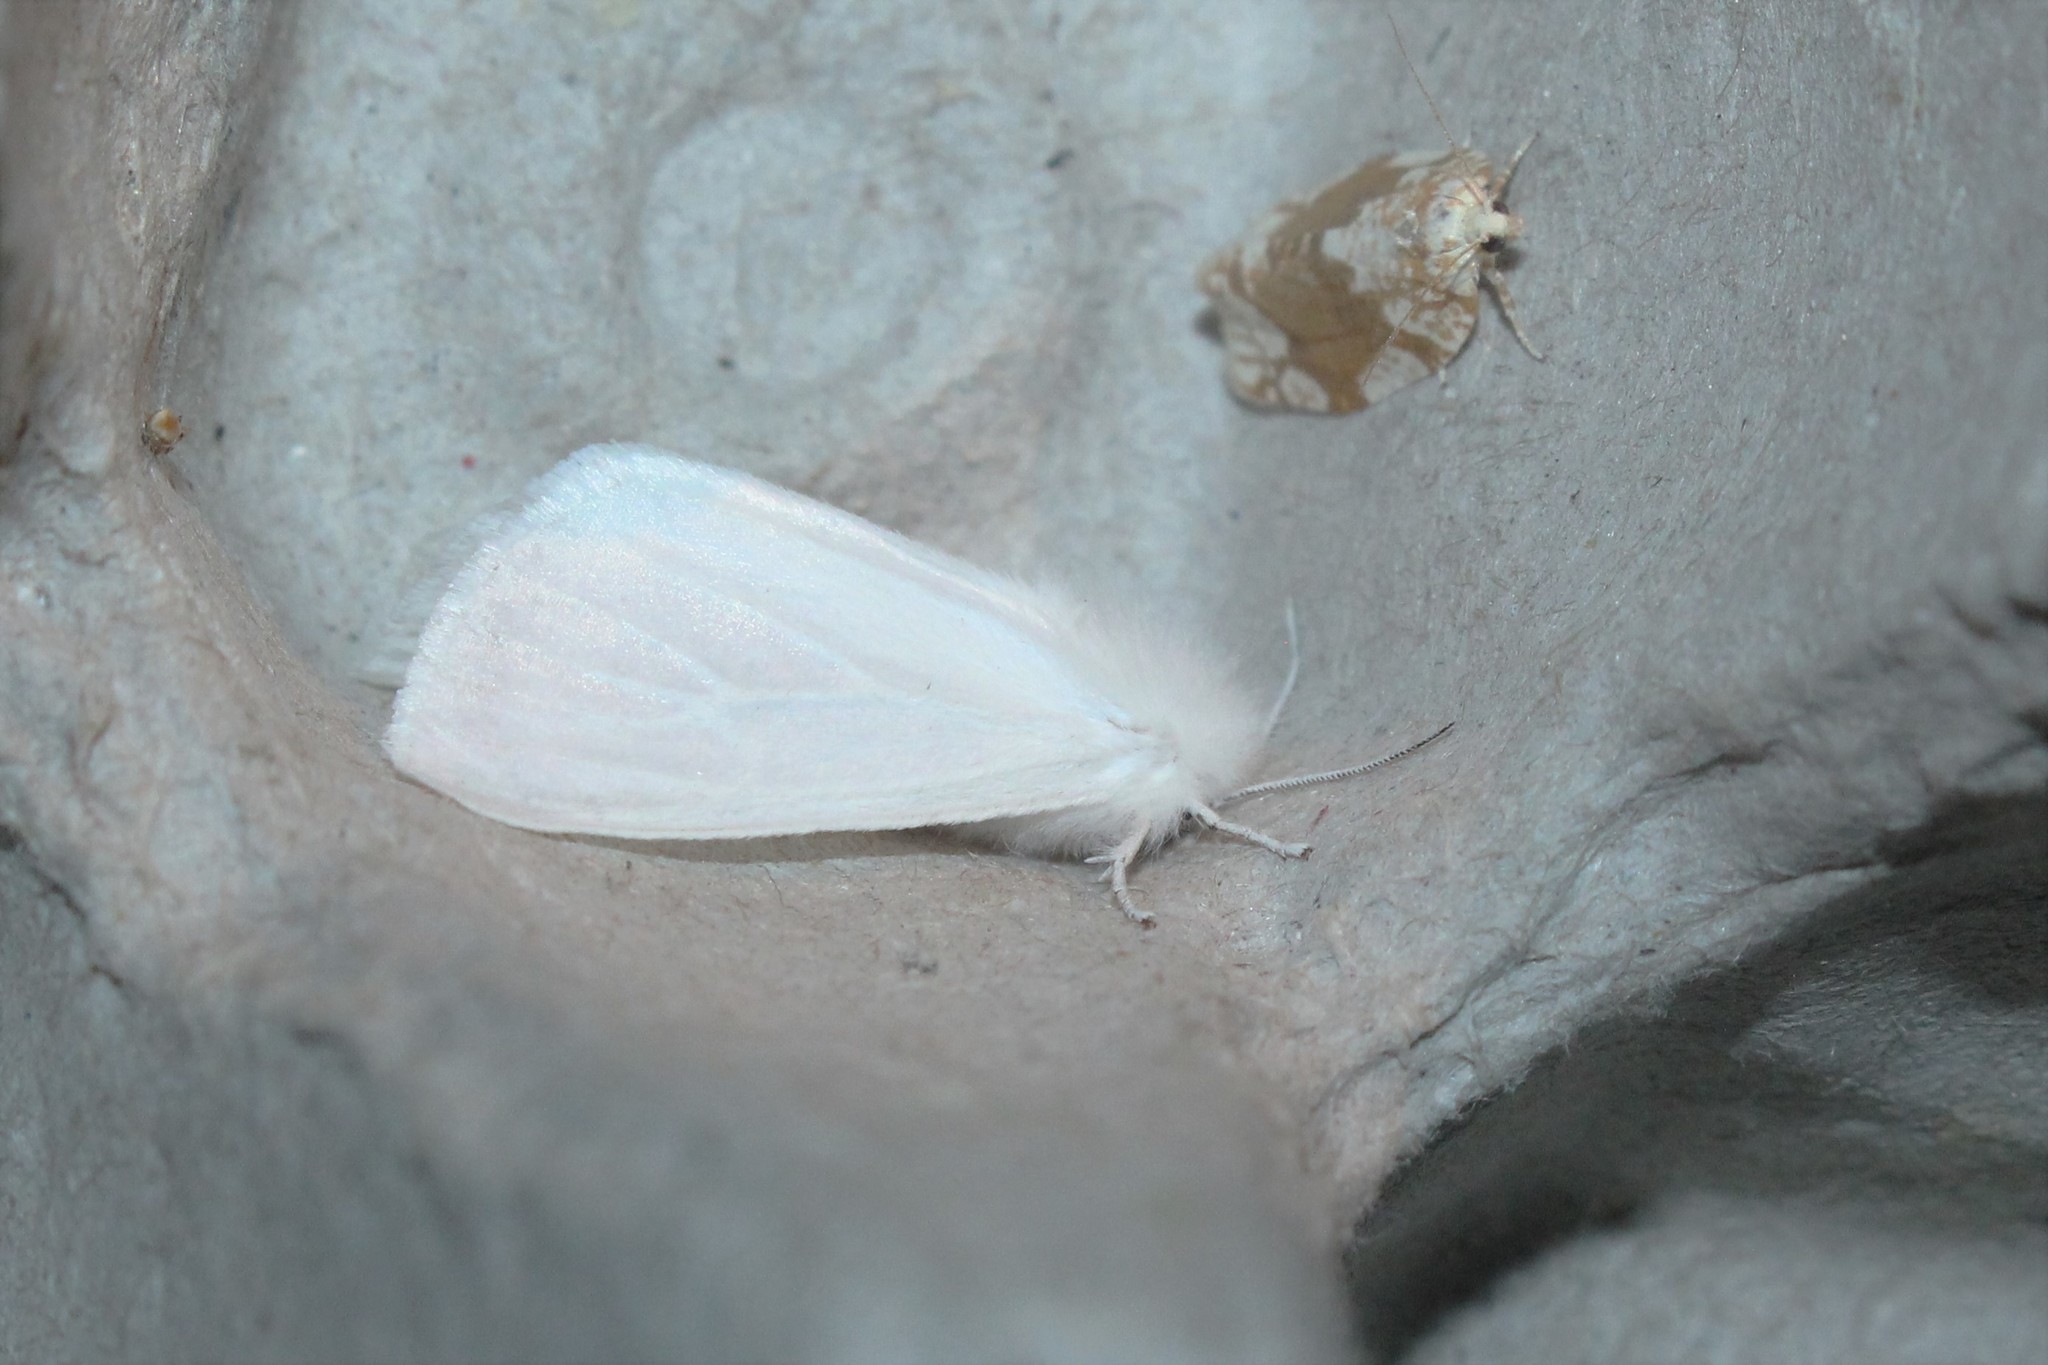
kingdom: Animalia
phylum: Arthropoda
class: Insecta
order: Lepidoptera
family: Erebidae
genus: Spilosoma
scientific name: Spilosoma latipennis
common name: Pink-legged tiger moth
